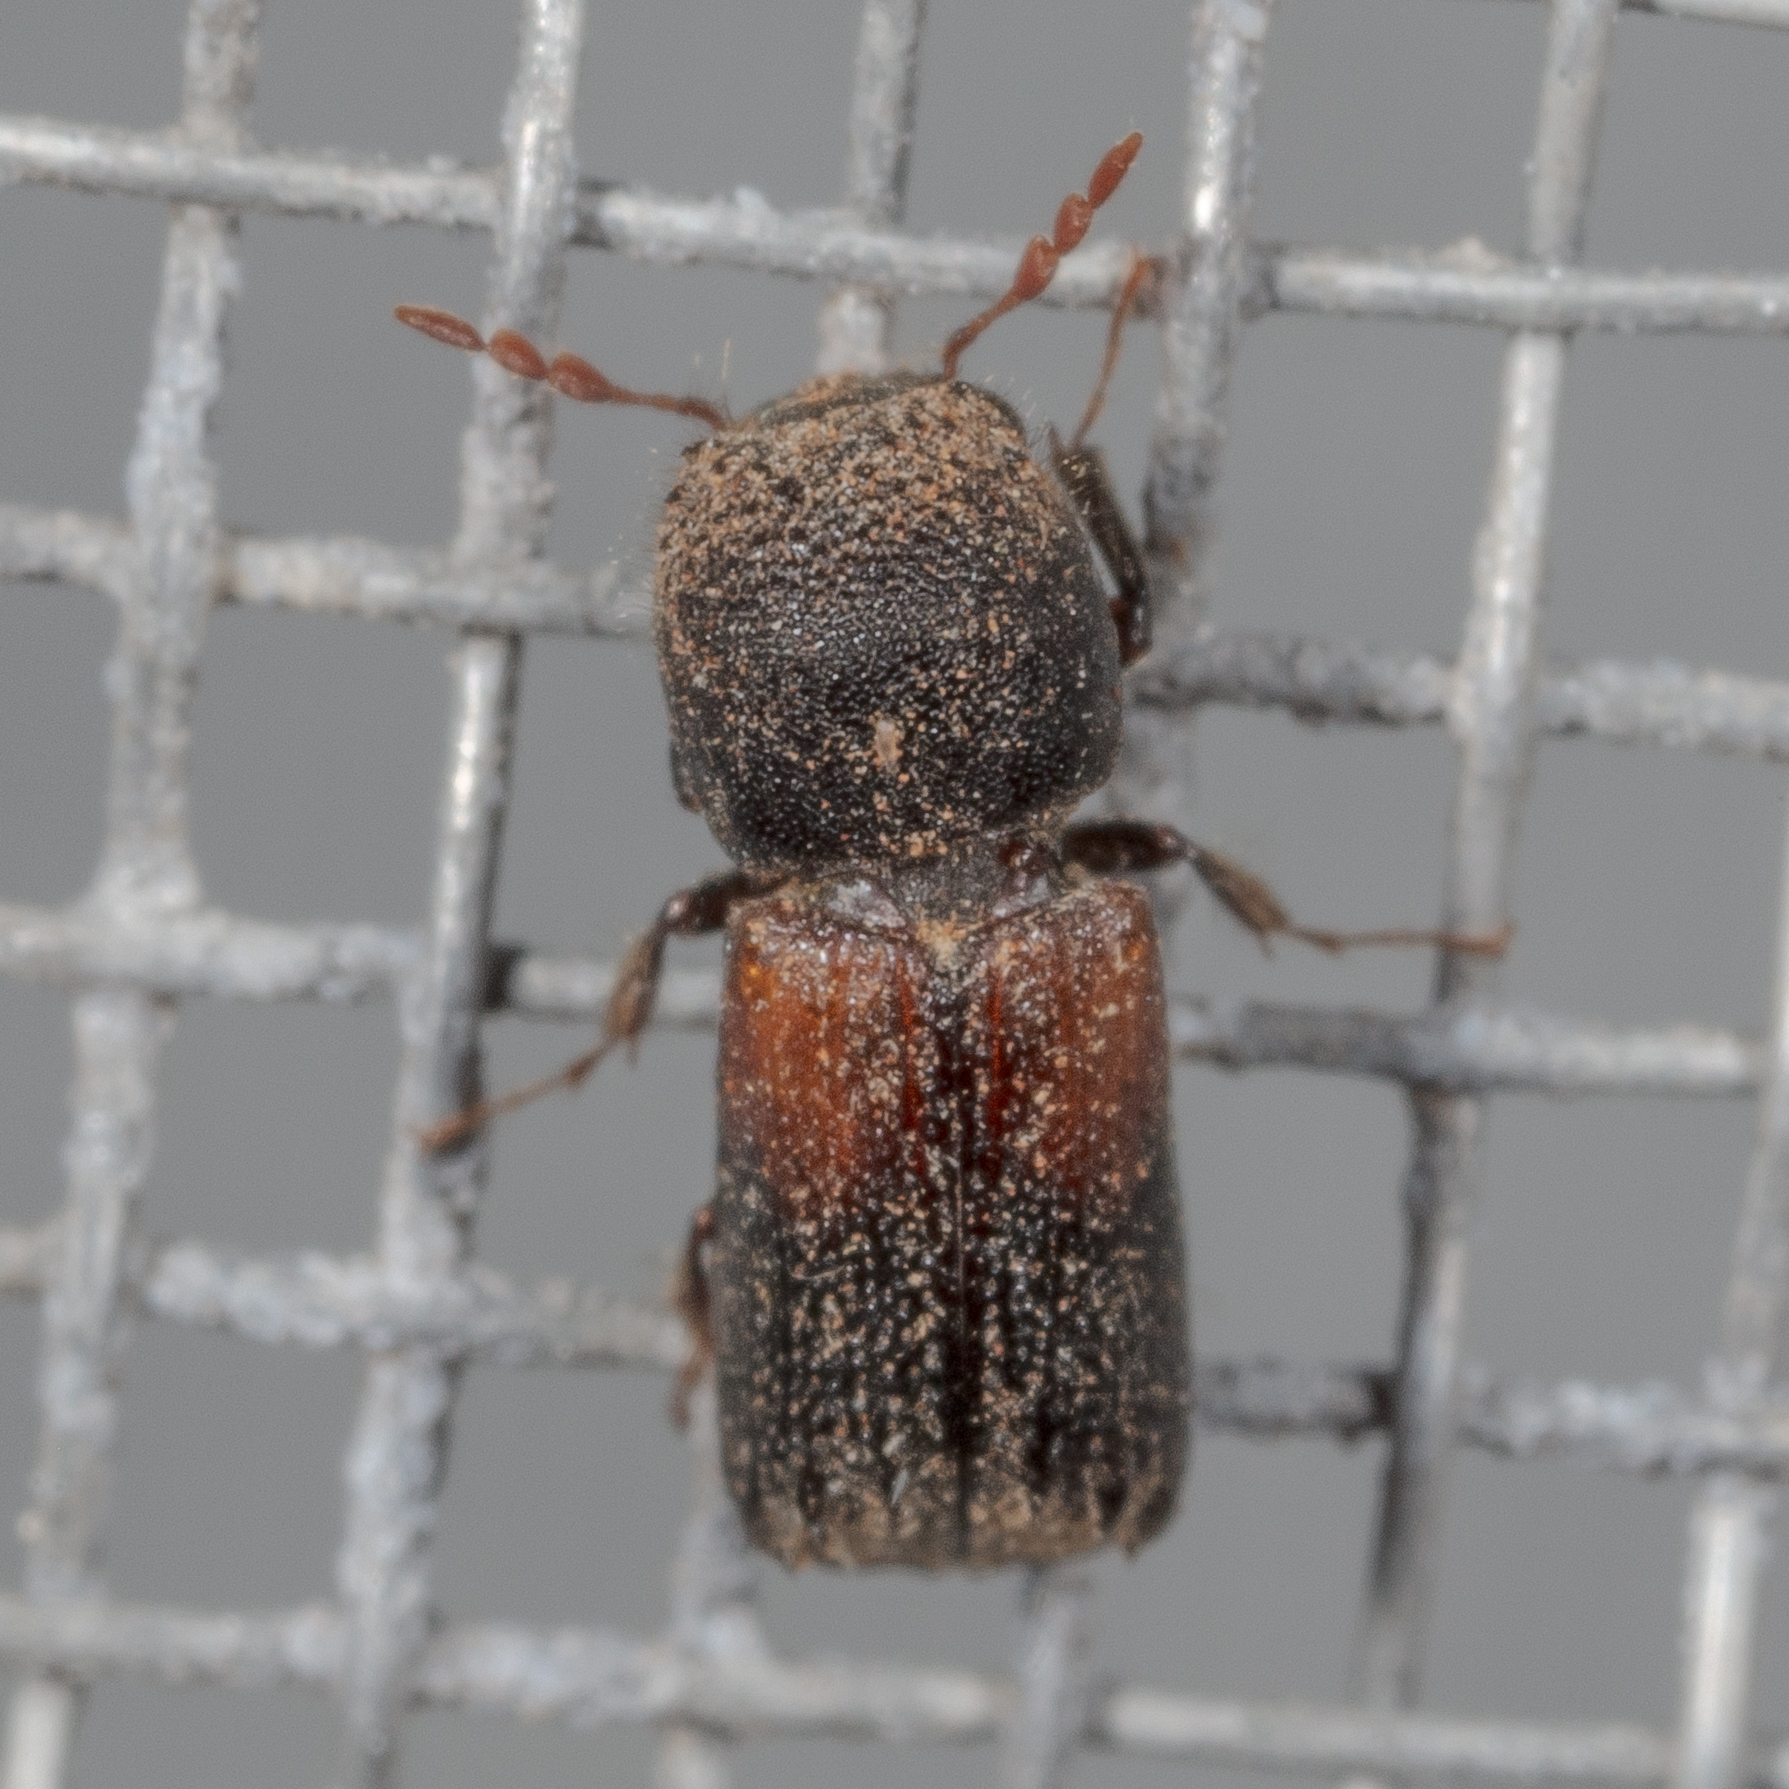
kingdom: Animalia
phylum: Arthropoda
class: Insecta
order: Coleoptera
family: Bostrichidae
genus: Xylobiops
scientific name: Xylobiops basilaris
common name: Red-shouldered bostrichid
